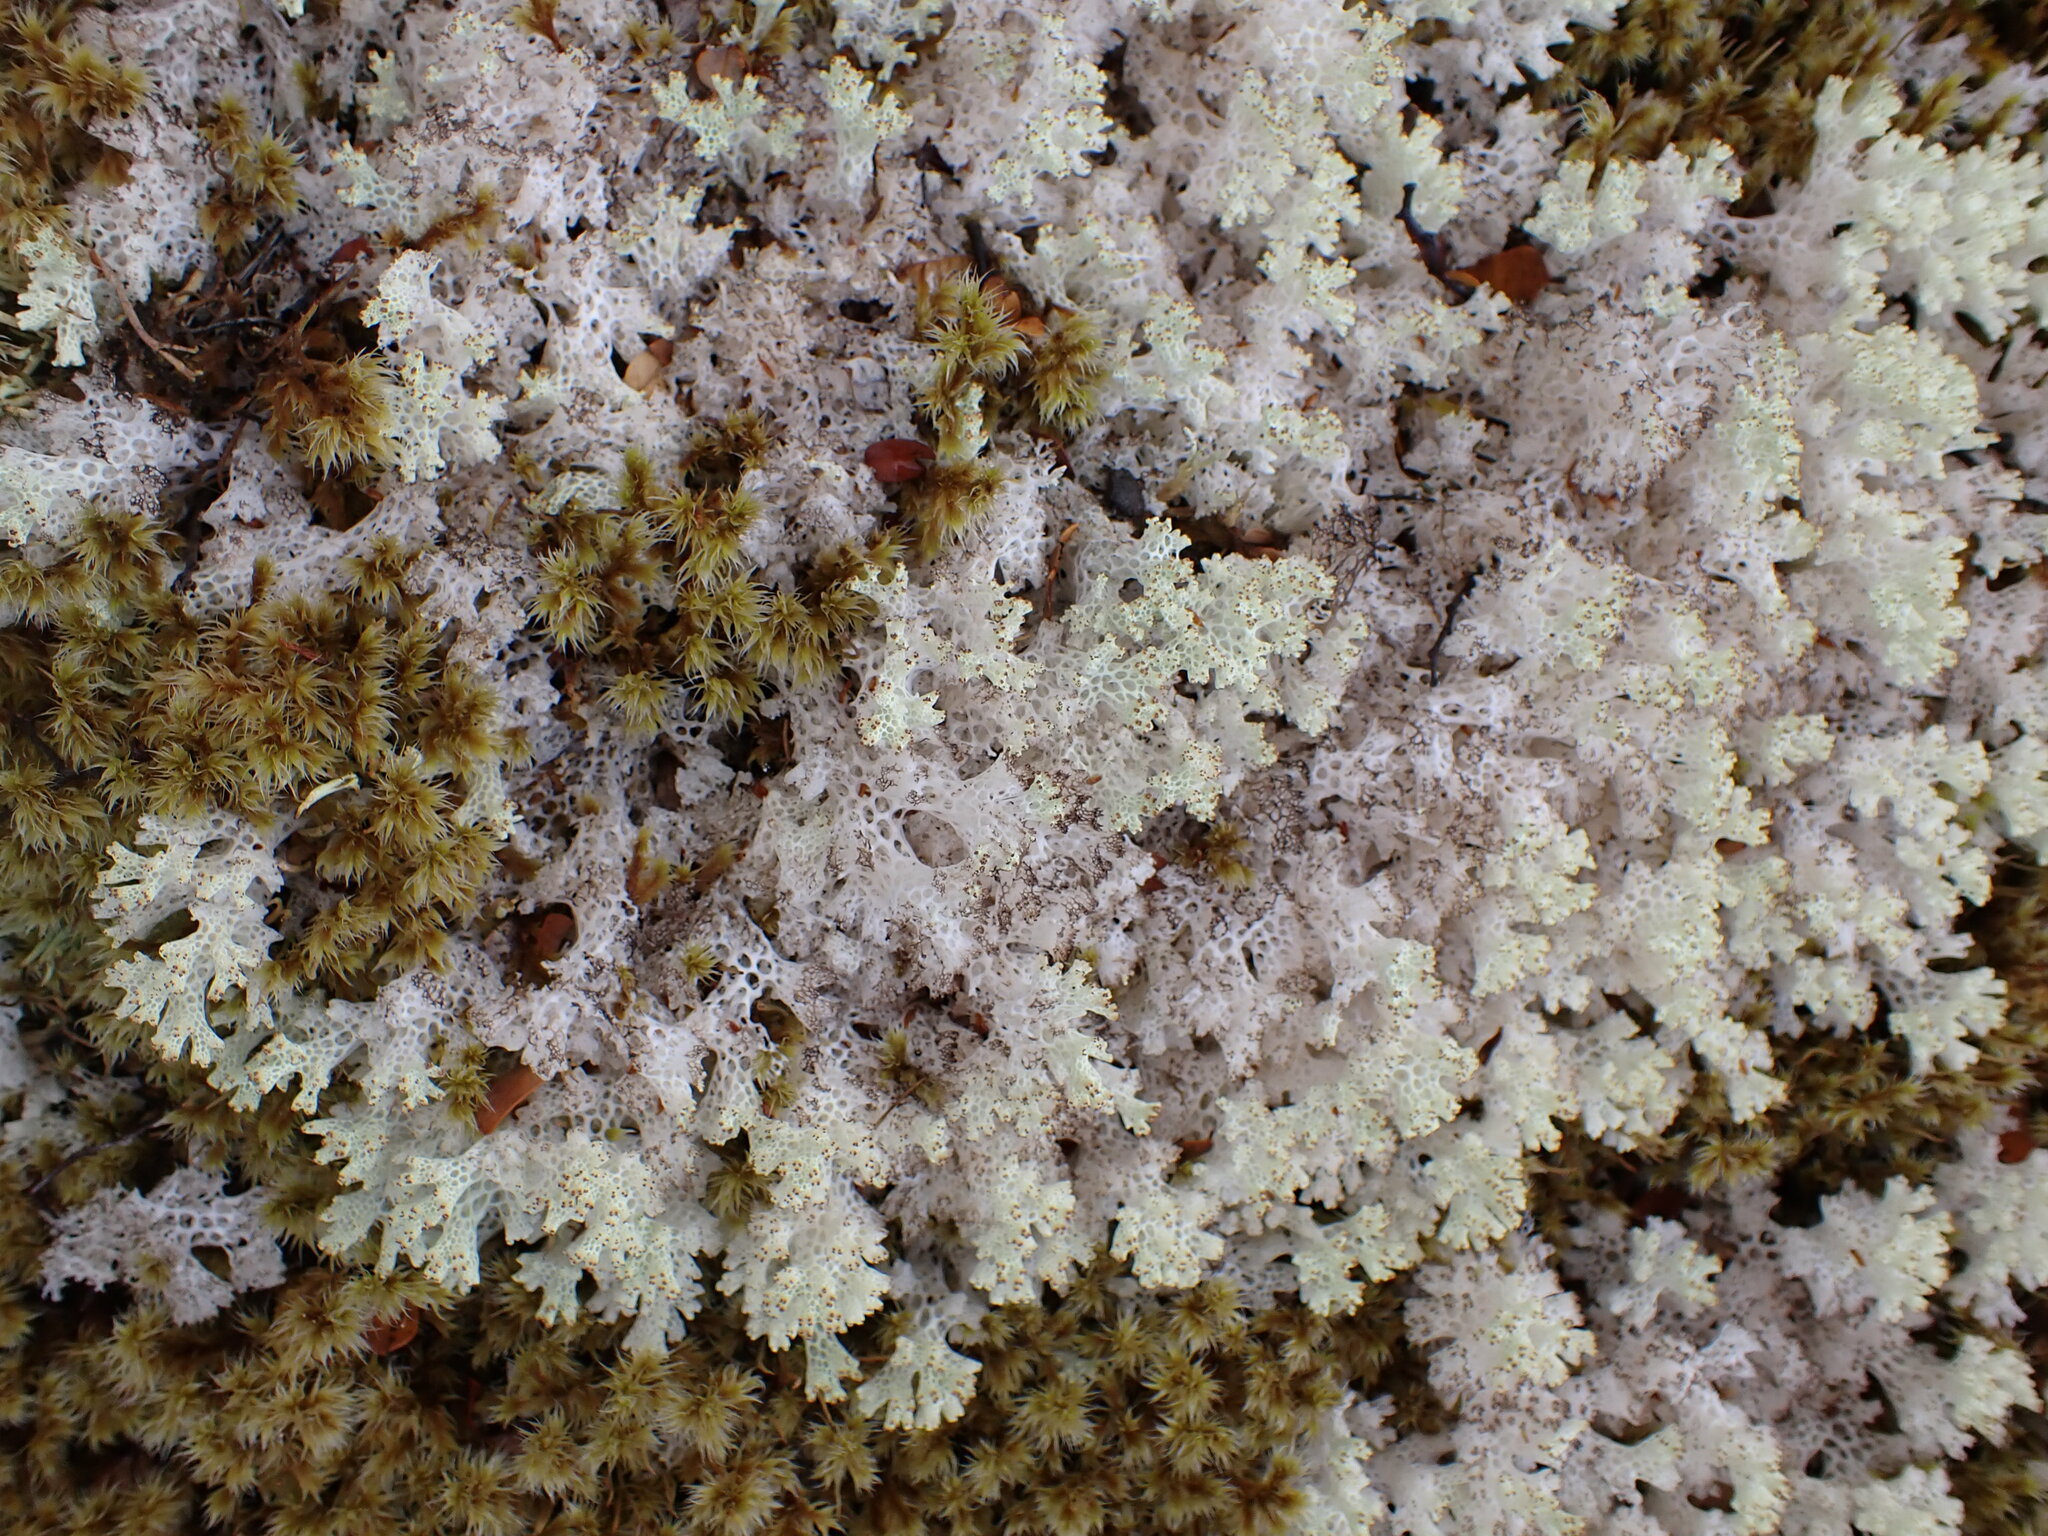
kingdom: Fungi
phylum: Ascomycota
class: Lecanoromycetes
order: Lecanorales
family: Cladoniaceae
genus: Pulchrocladia
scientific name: Pulchrocladia retipora
